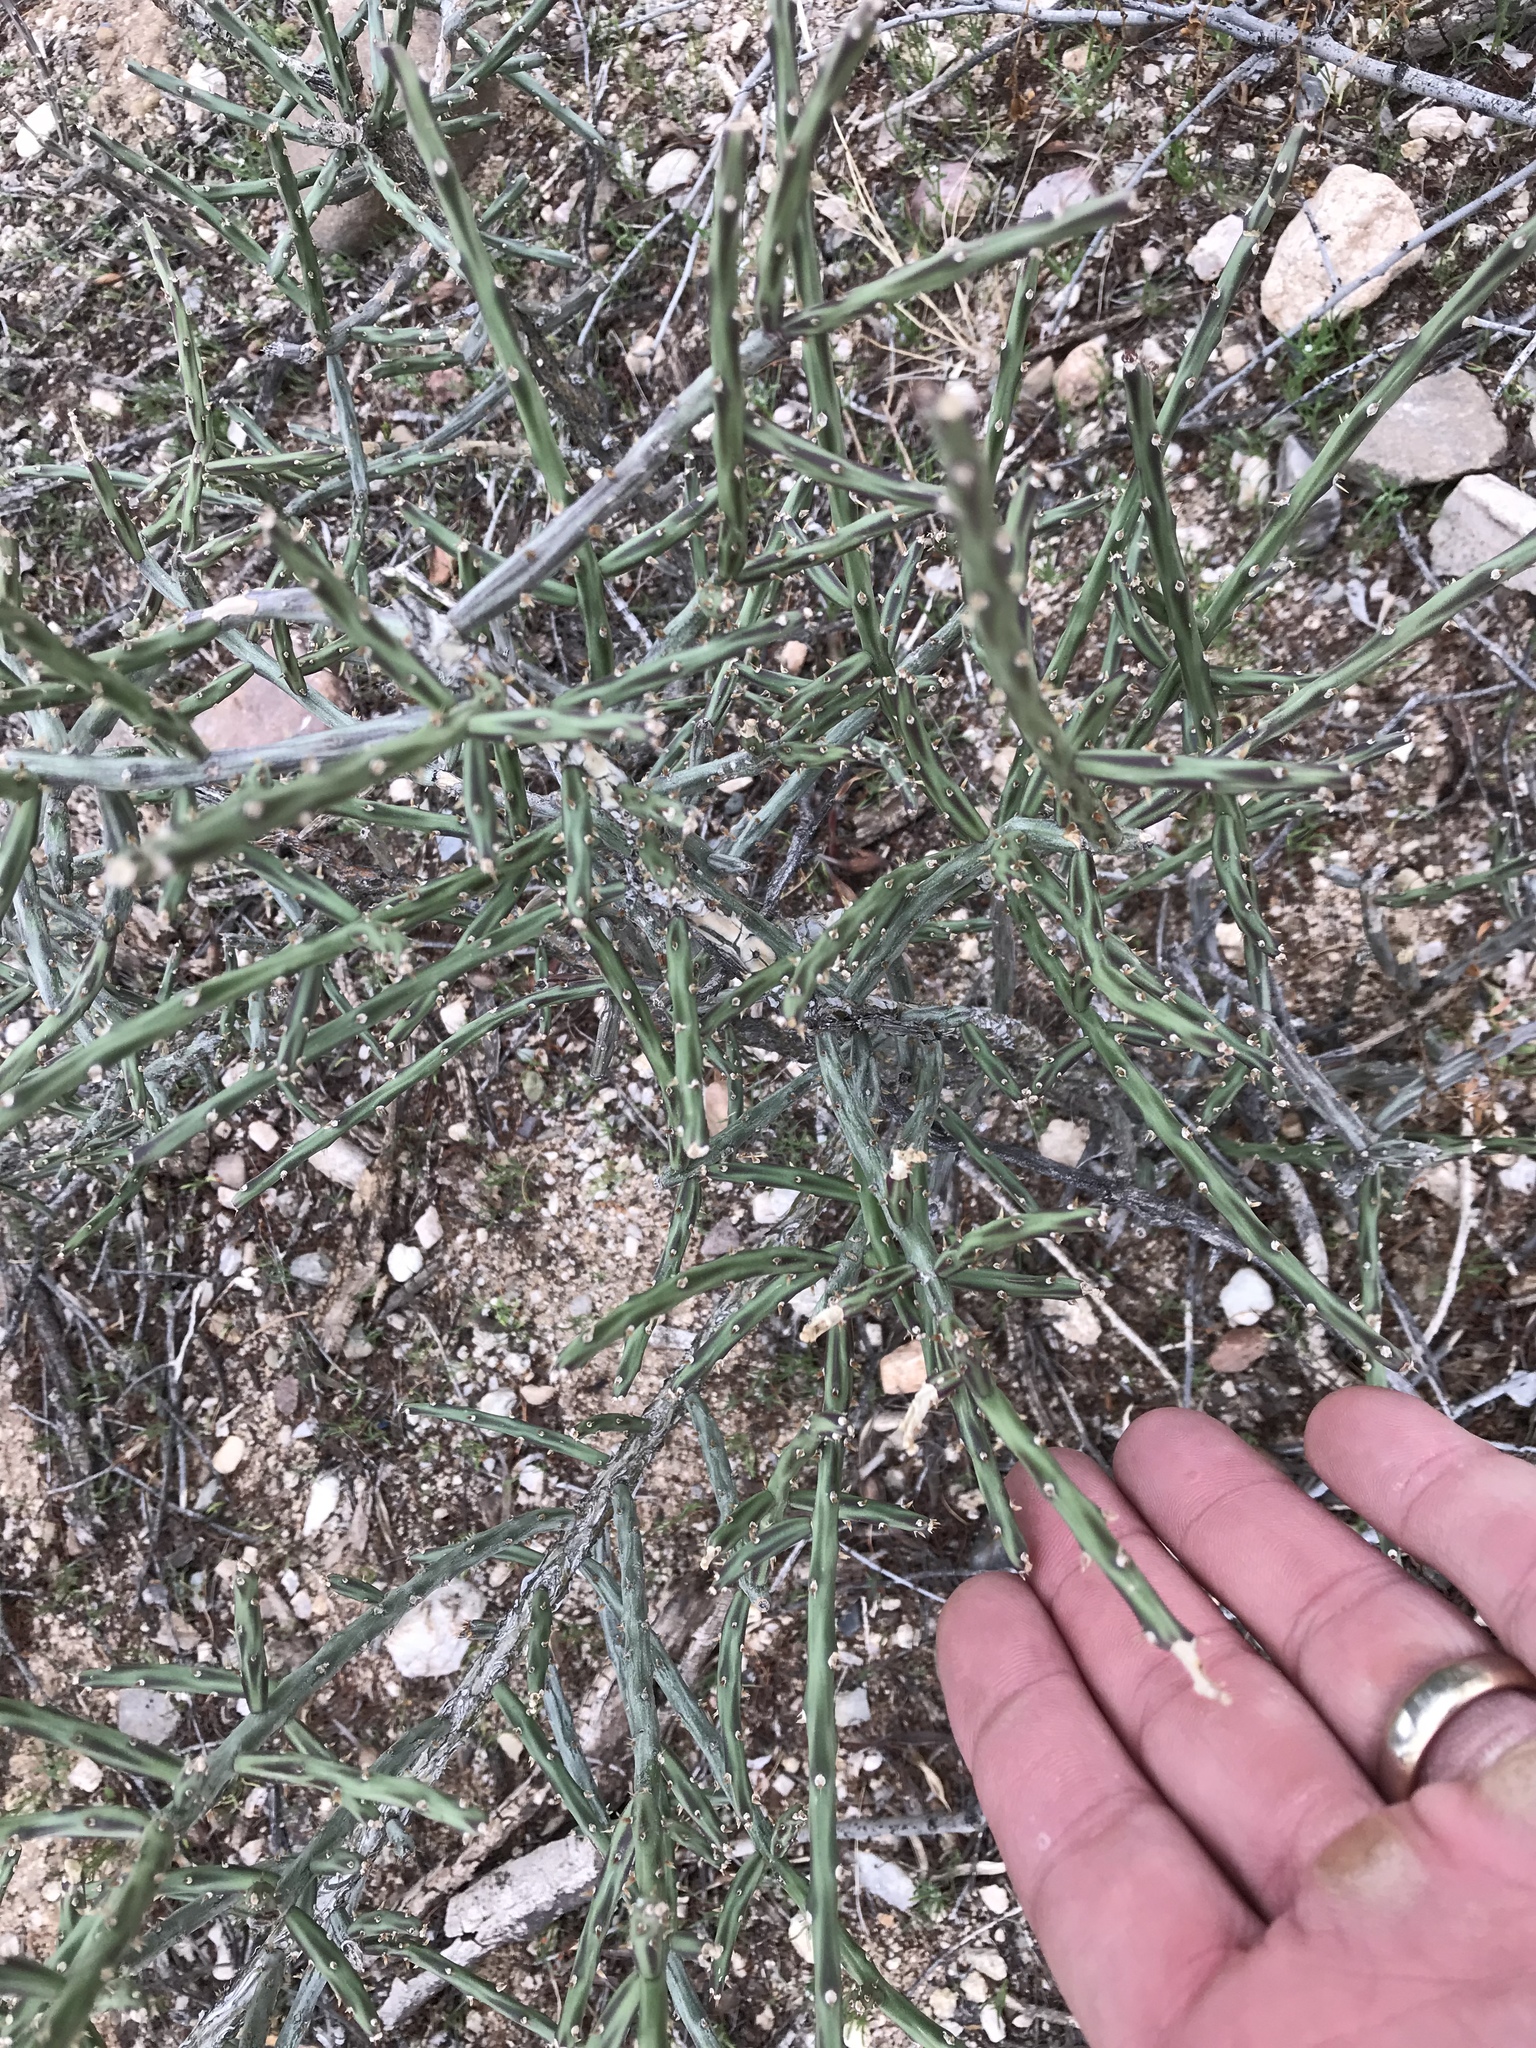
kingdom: Plantae
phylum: Tracheophyta
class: Magnoliopsida
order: Caryophyllales
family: Cactaceae
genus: Cylindropuntia
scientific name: Cylindropuntia leptocaulis
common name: Christmas cactus
